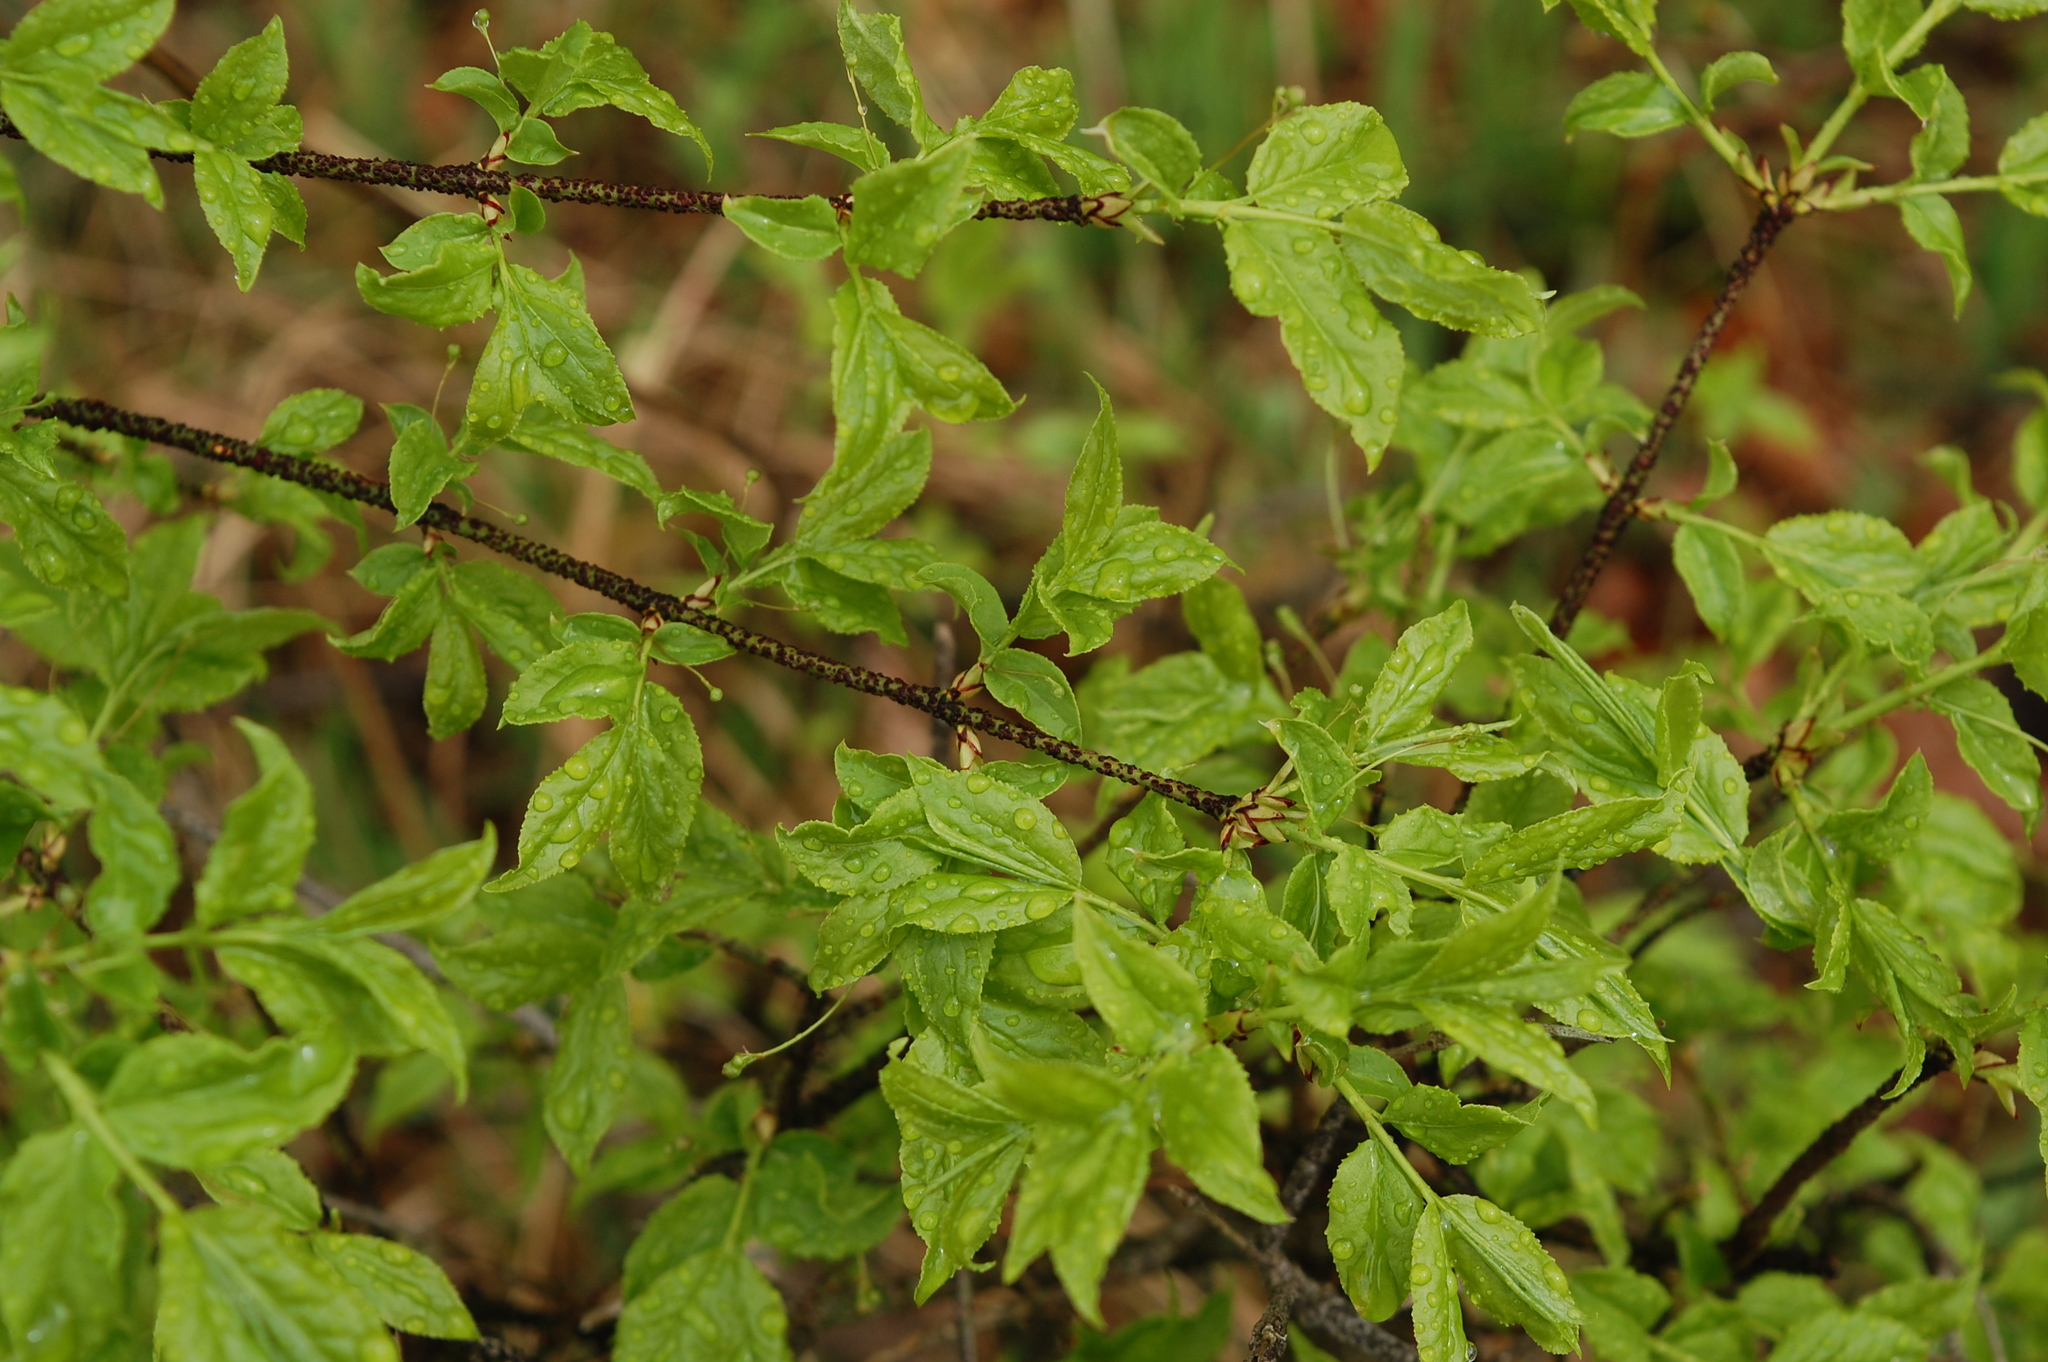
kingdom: Plantae
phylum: Tracheophyta
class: Magnoliopsida
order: Celastrales
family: Celastraceae
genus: Euonymus
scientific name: Euonymus verrucosus
